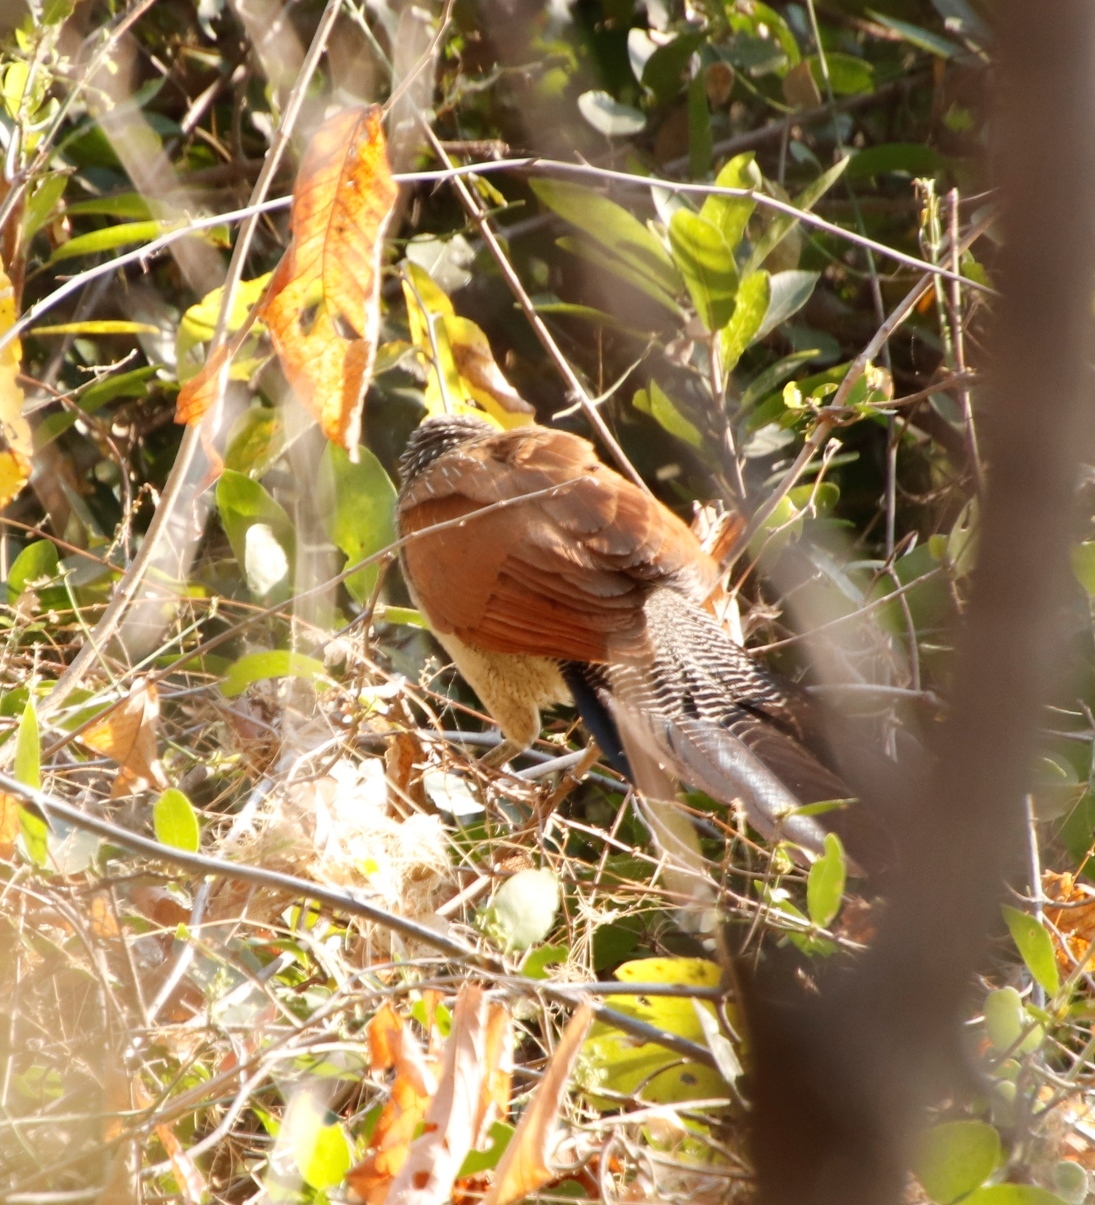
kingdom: Animalia
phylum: Chordata
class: Aves
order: Cuculiformes
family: Cuculidae
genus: Centropus
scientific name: Centropus superciliosus
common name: White-browed coucal
